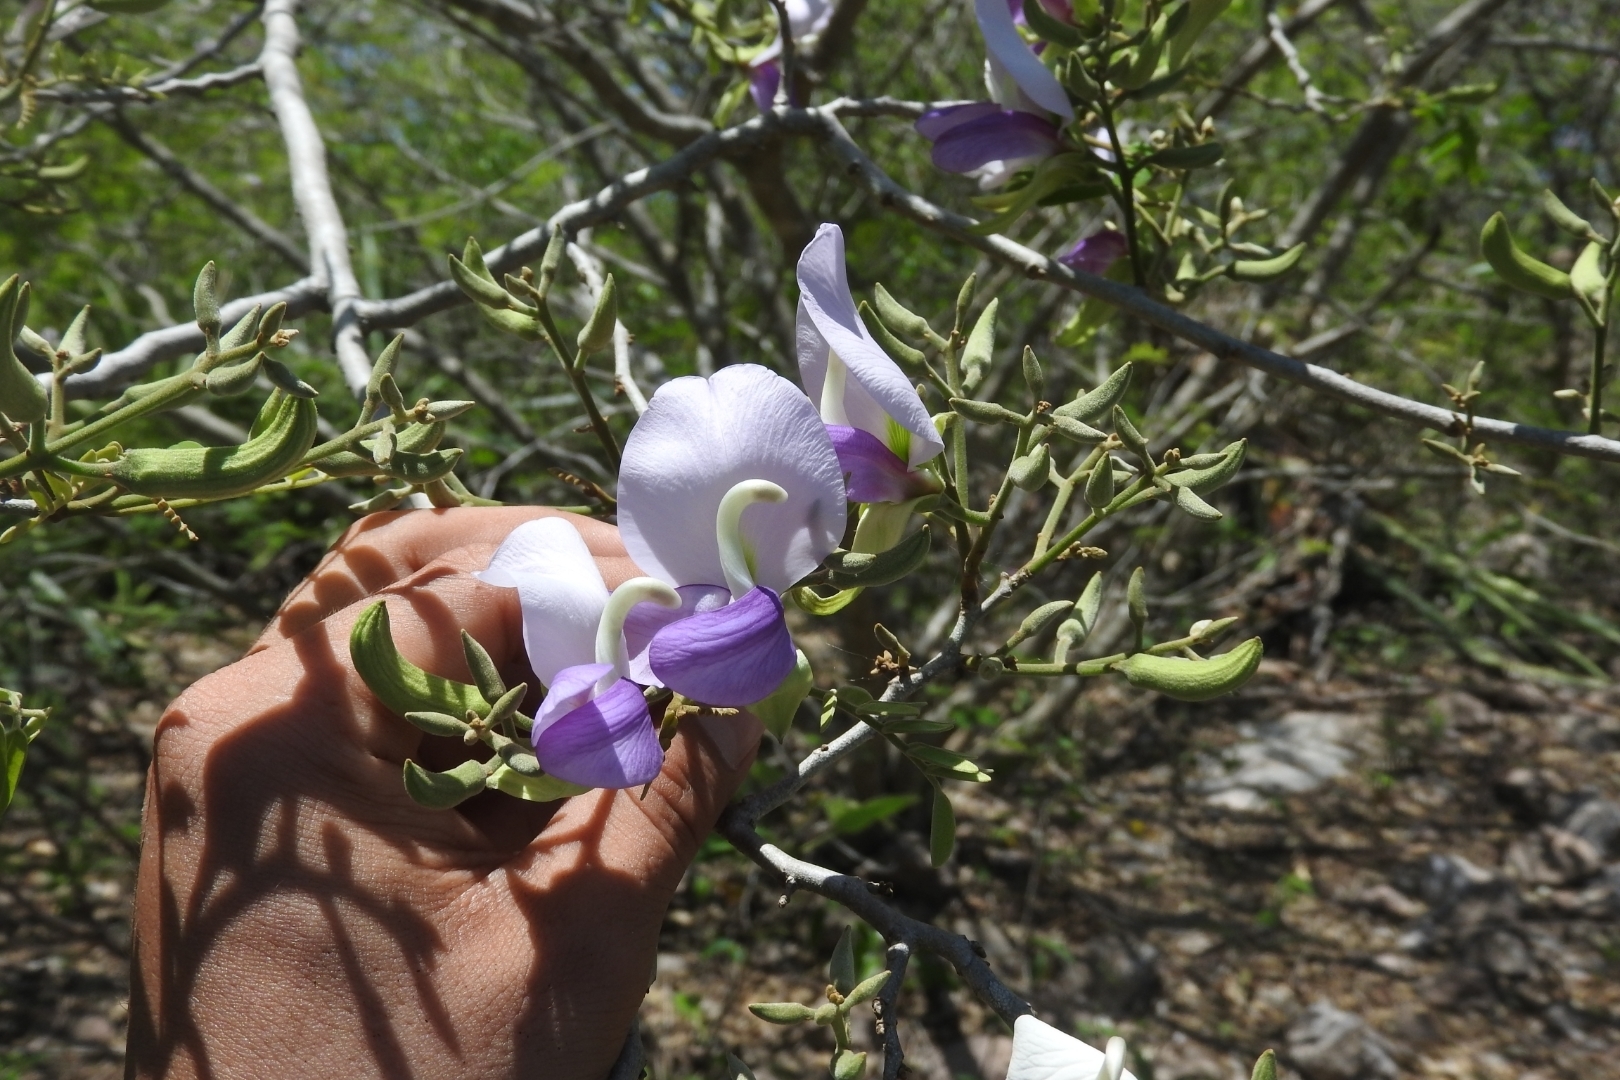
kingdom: Plantae
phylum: Tracheophyta
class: Magnoliopsida
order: Fabales
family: Fabaceae
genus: Gliricidia
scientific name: Gliricidia sepium
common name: Quickstick
